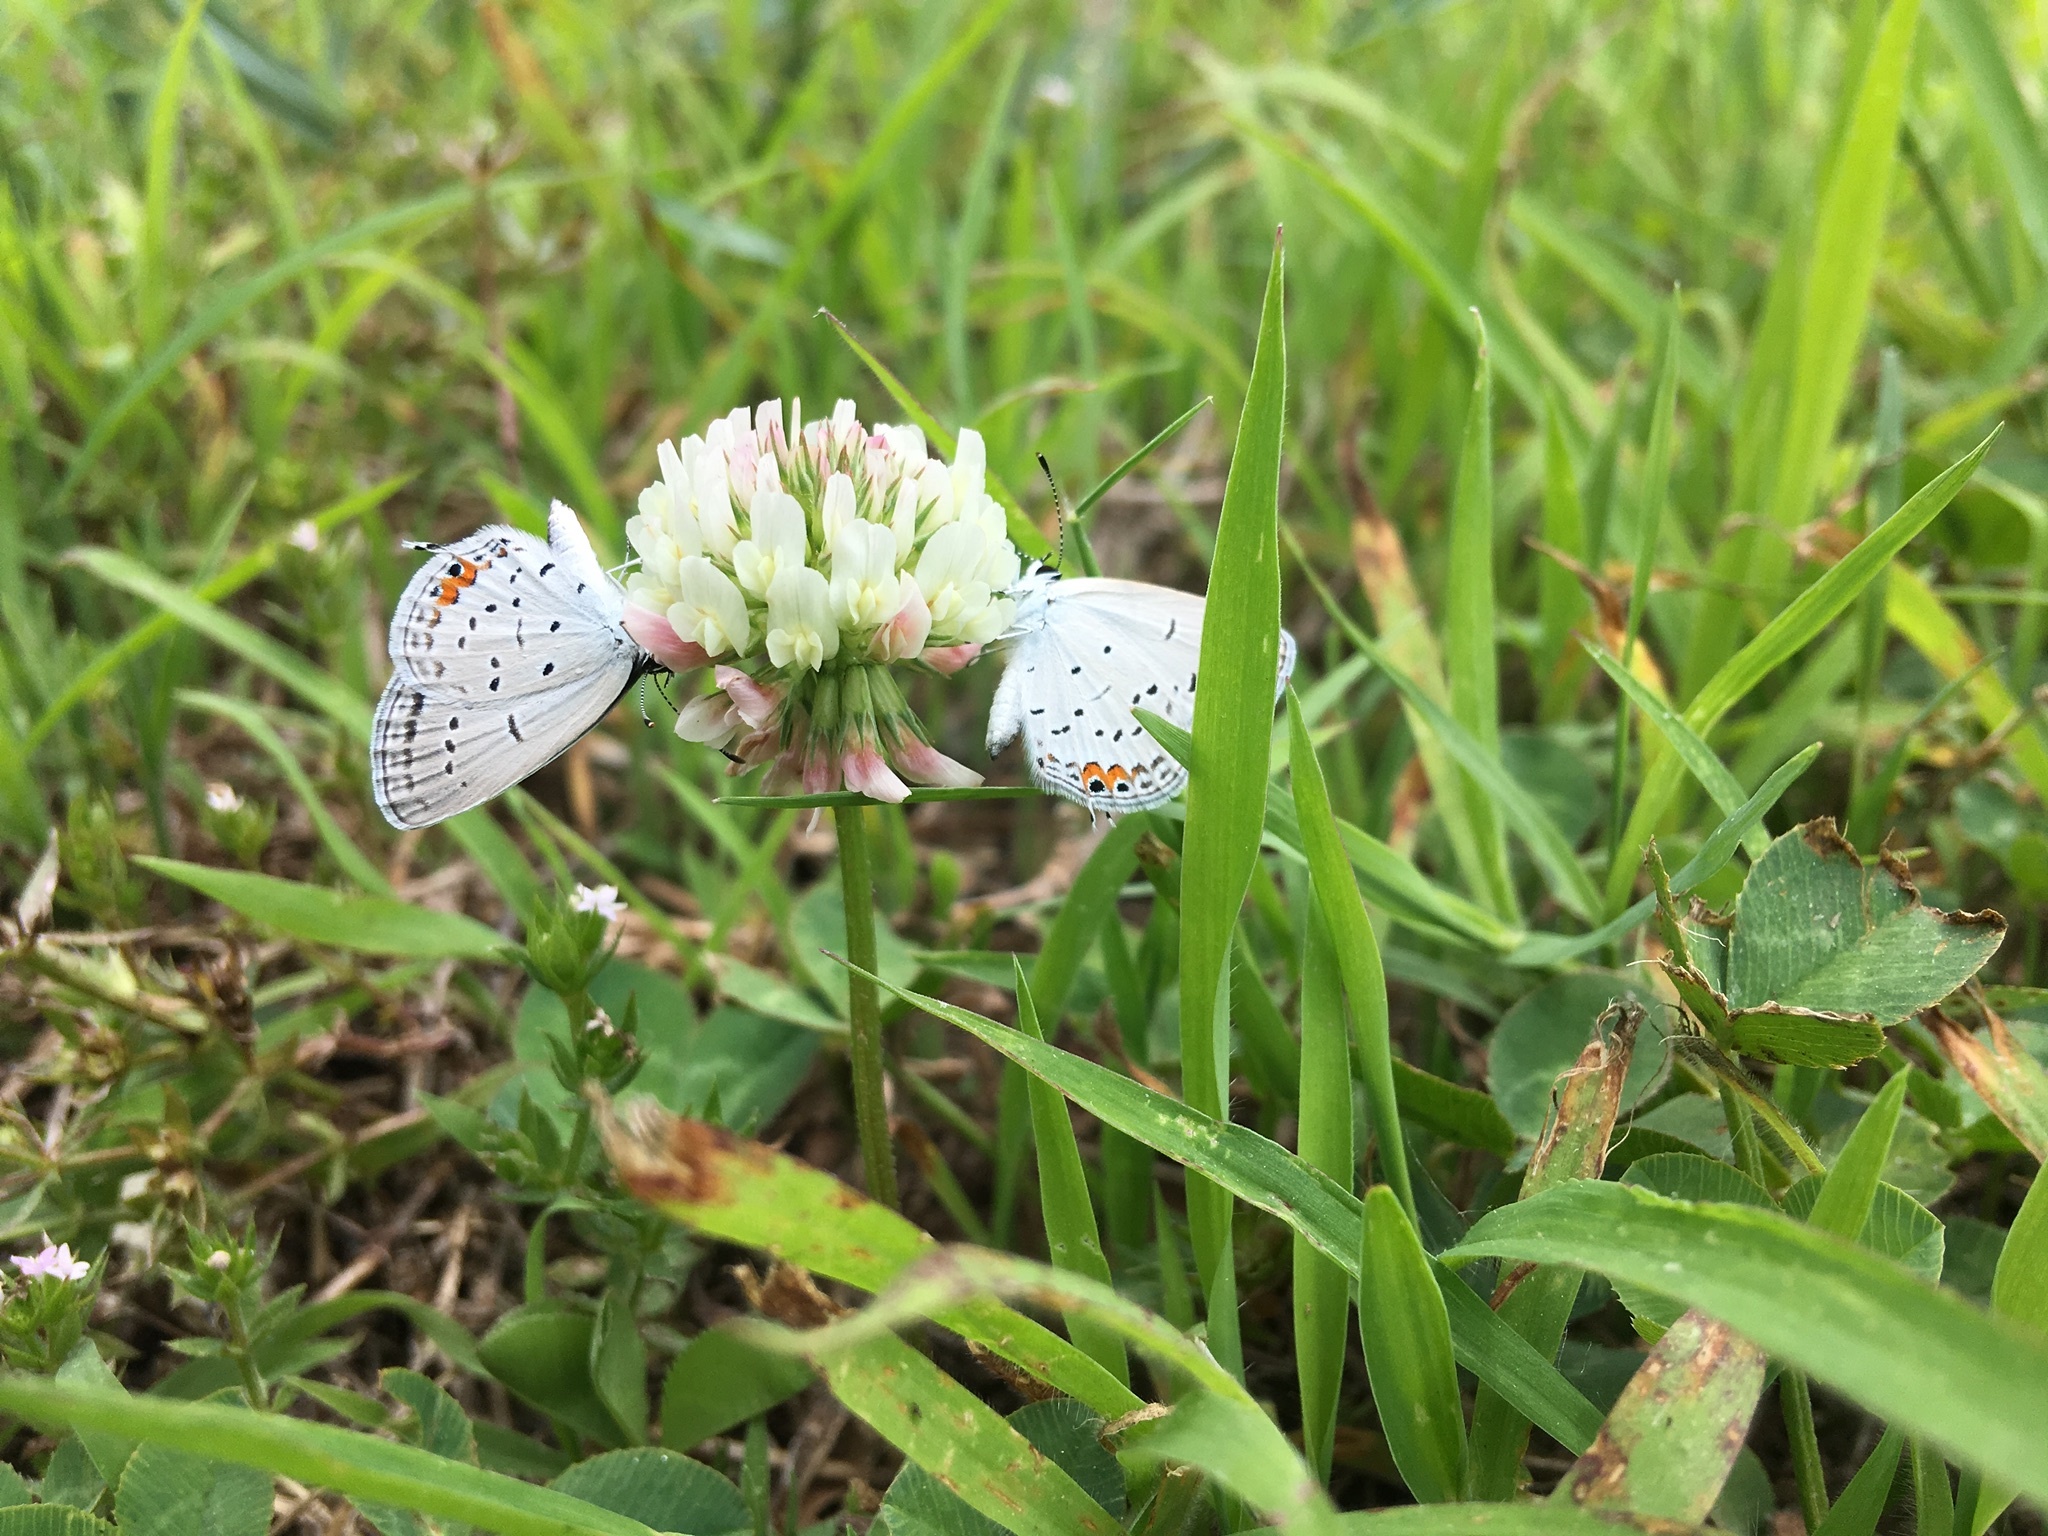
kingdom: Animalia
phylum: Arthropoda
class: Insecta
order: Lepidoptera
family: Lycaenidae
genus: Elkalyce
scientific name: Elkalyce comyntas
